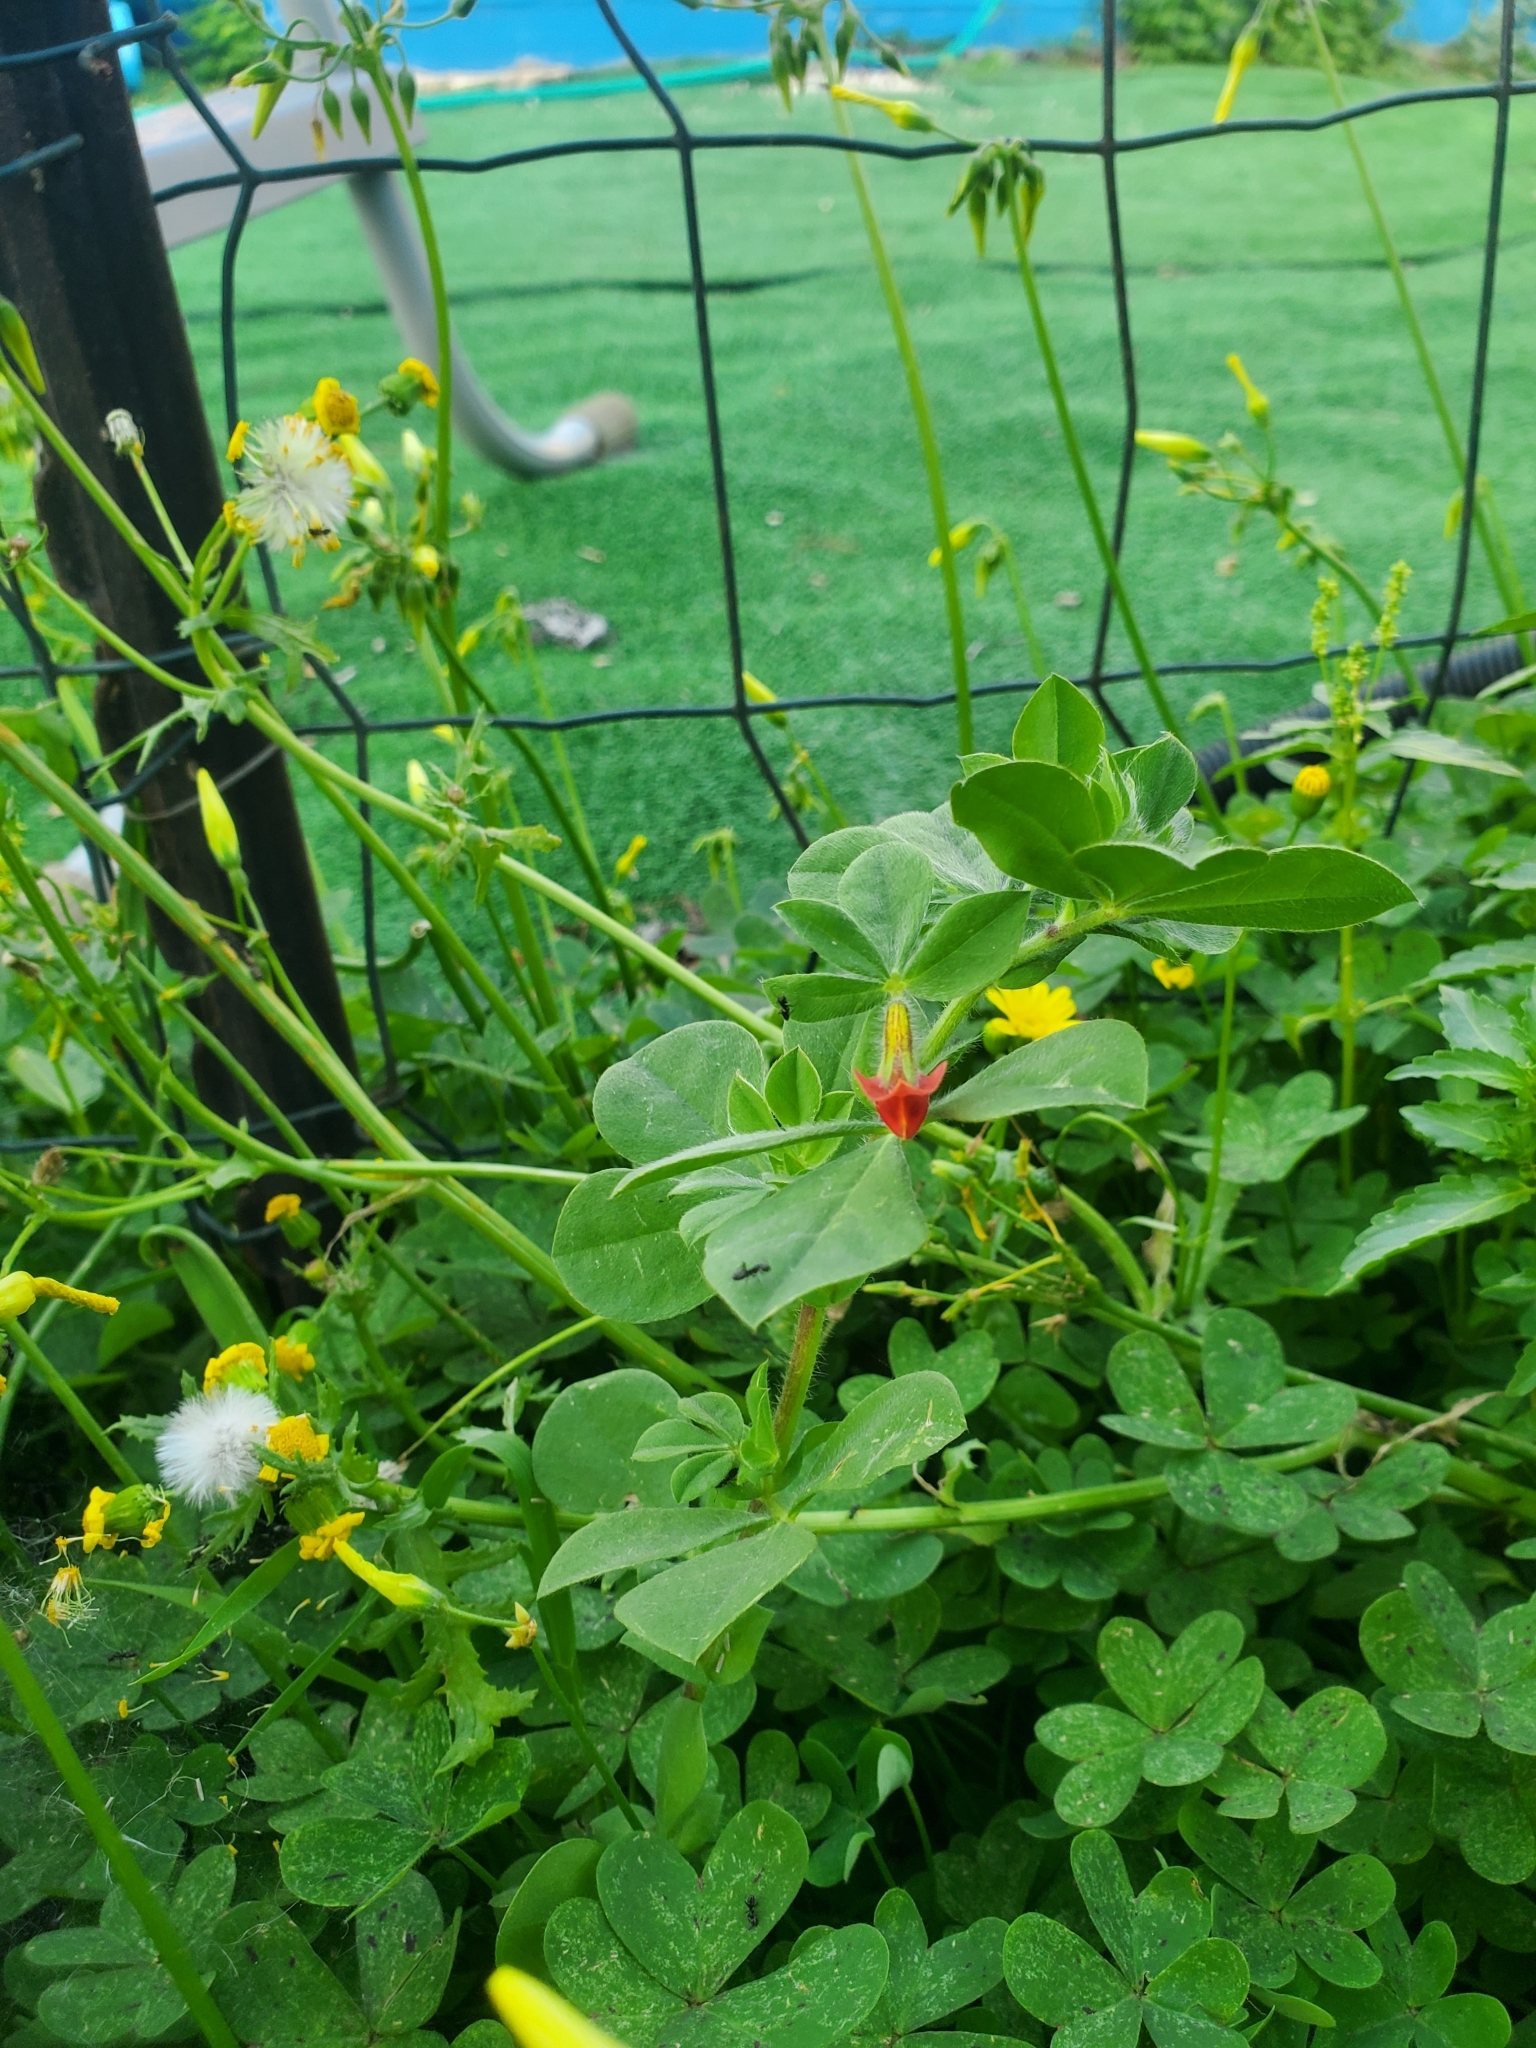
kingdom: Plantae
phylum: Tracheophyta
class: Magnoliopsida
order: Fabales
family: Fabaceae
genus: Lotus
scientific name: Lotus tetragonolobus
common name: Asparagus-pea
